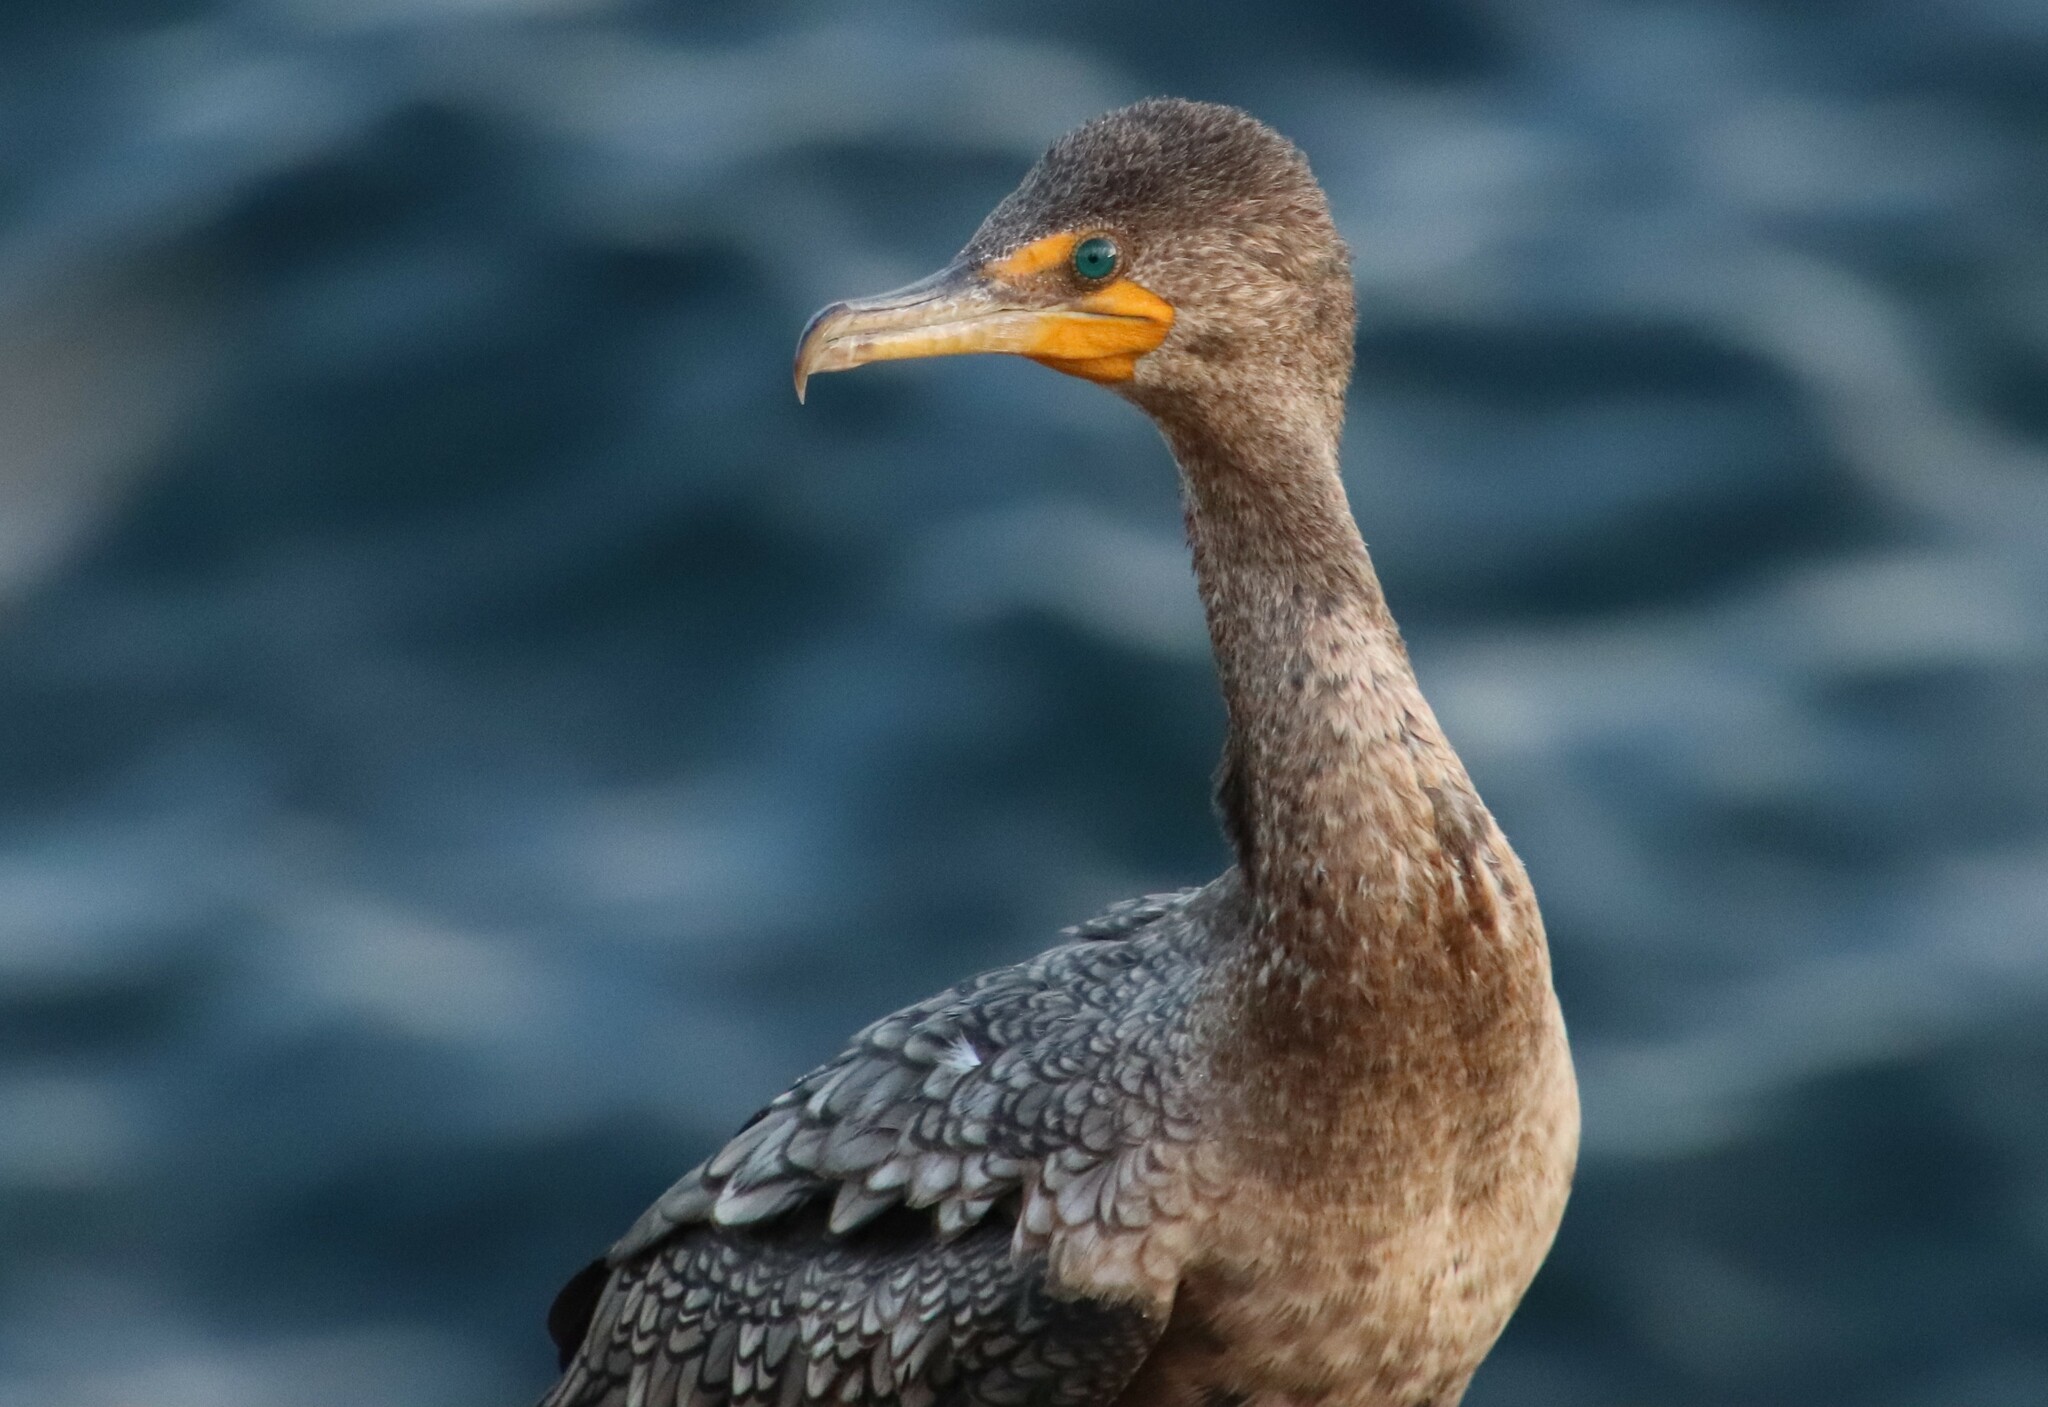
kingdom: Animalia
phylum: Chordata
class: Aves
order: Suliformes
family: Phalacrocoracidae
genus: Phalacrocorax
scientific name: Phalacrocorax auritus
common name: Double-crested cormorant
